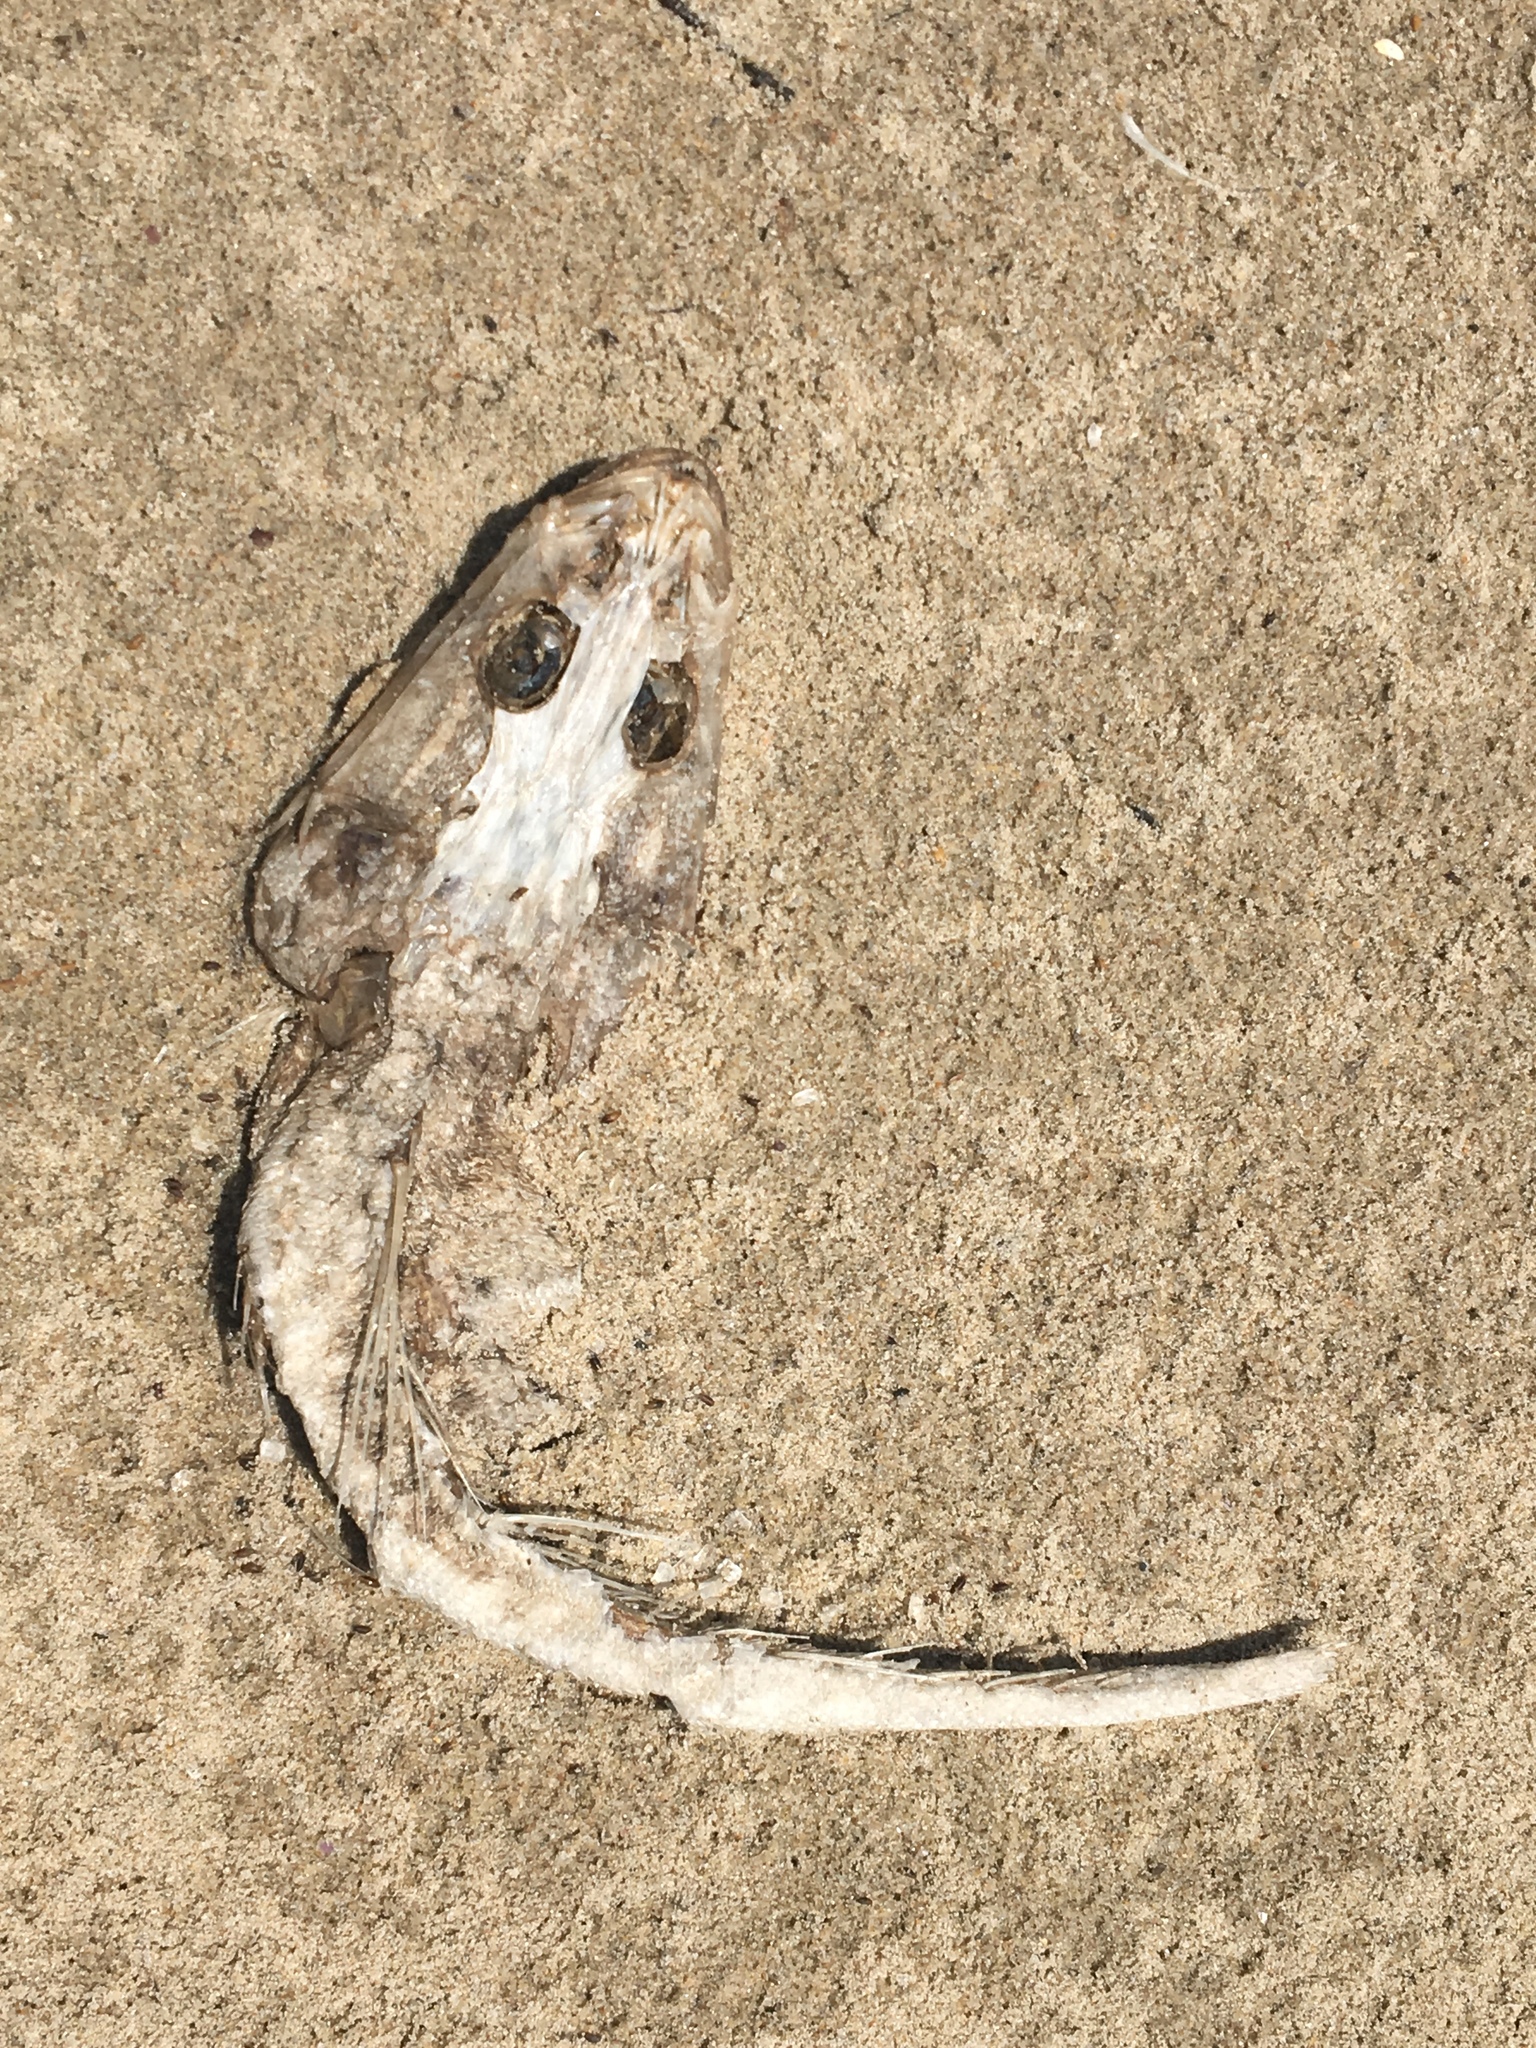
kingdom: Animalia
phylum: Chordata
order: Scorpaeniformes
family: Platycephalidae
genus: Platycephalus
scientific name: Platycephalus fuscus
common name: Dusky flathead
